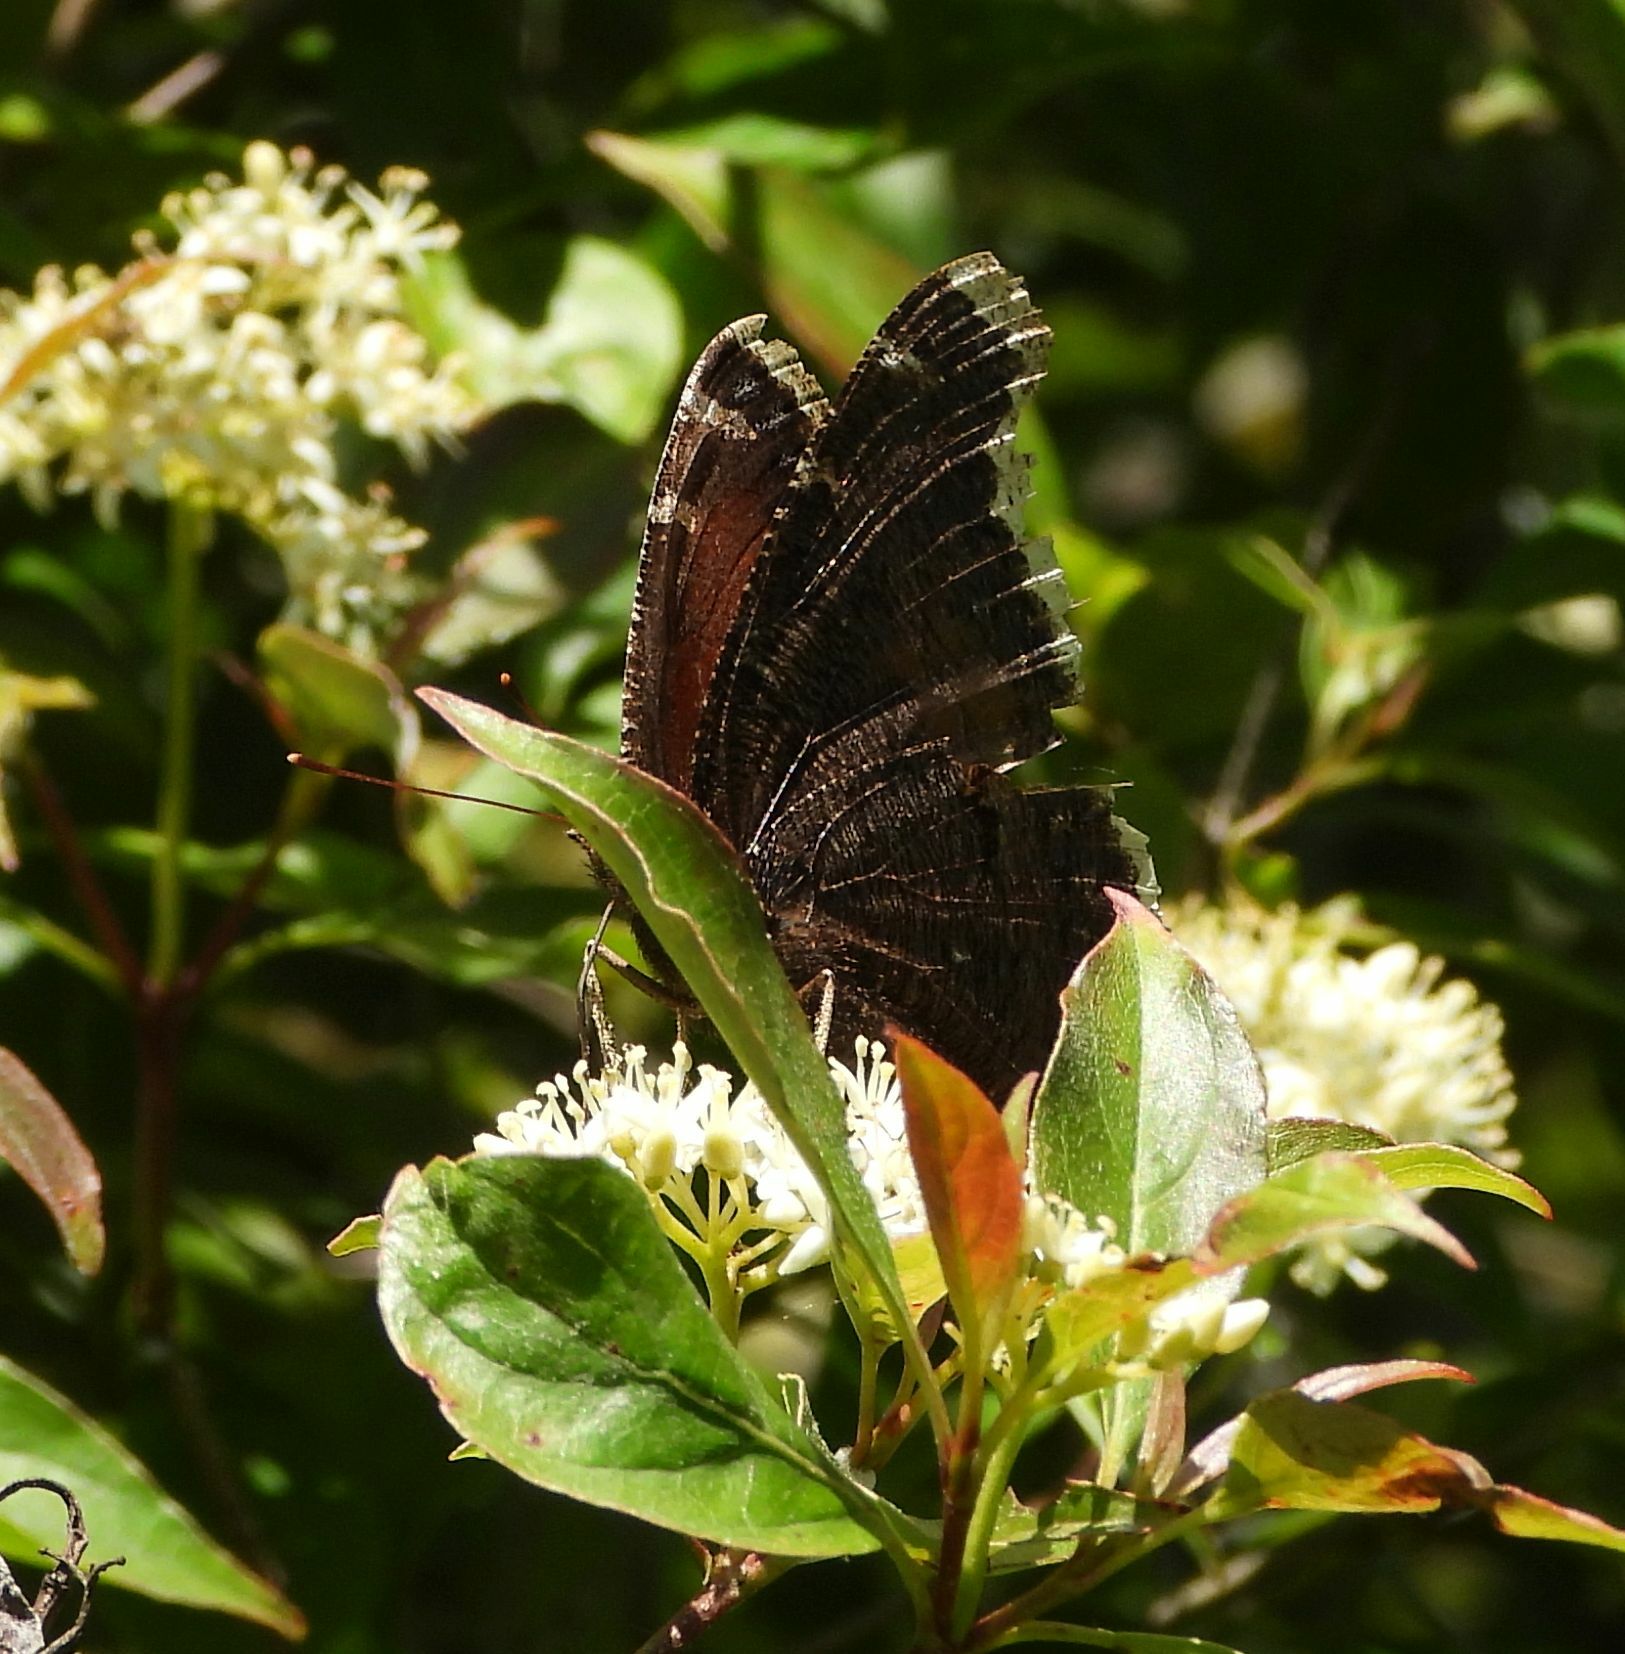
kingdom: Animalia
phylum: Arthropoda
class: Insecta
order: Lepidoptera
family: Nymphalidae
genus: Nymphalis
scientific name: Nymphalis antiopa
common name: Camberwell beauty
